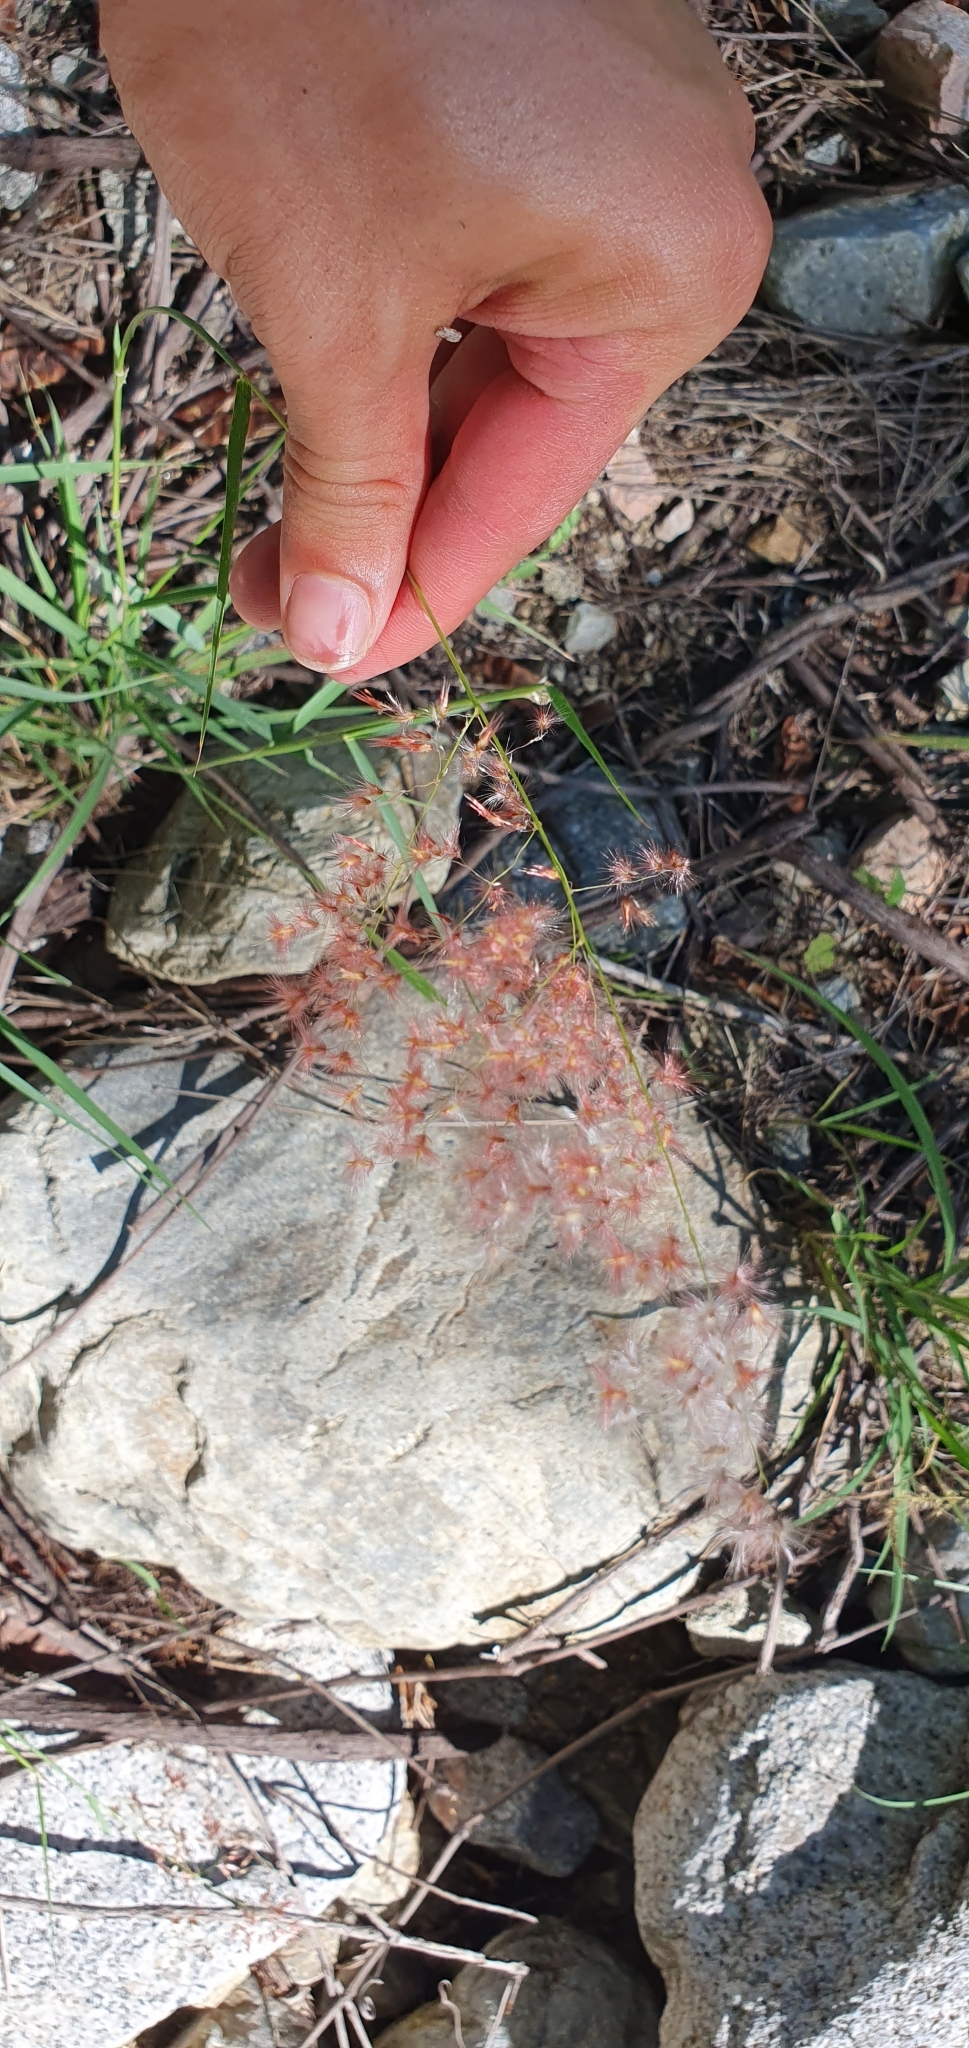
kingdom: Plantae
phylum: Tracheophyta
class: Liliopsida
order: Poales
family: Poaceae
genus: Melinis
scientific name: Melinis repens
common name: Rose natal grass
